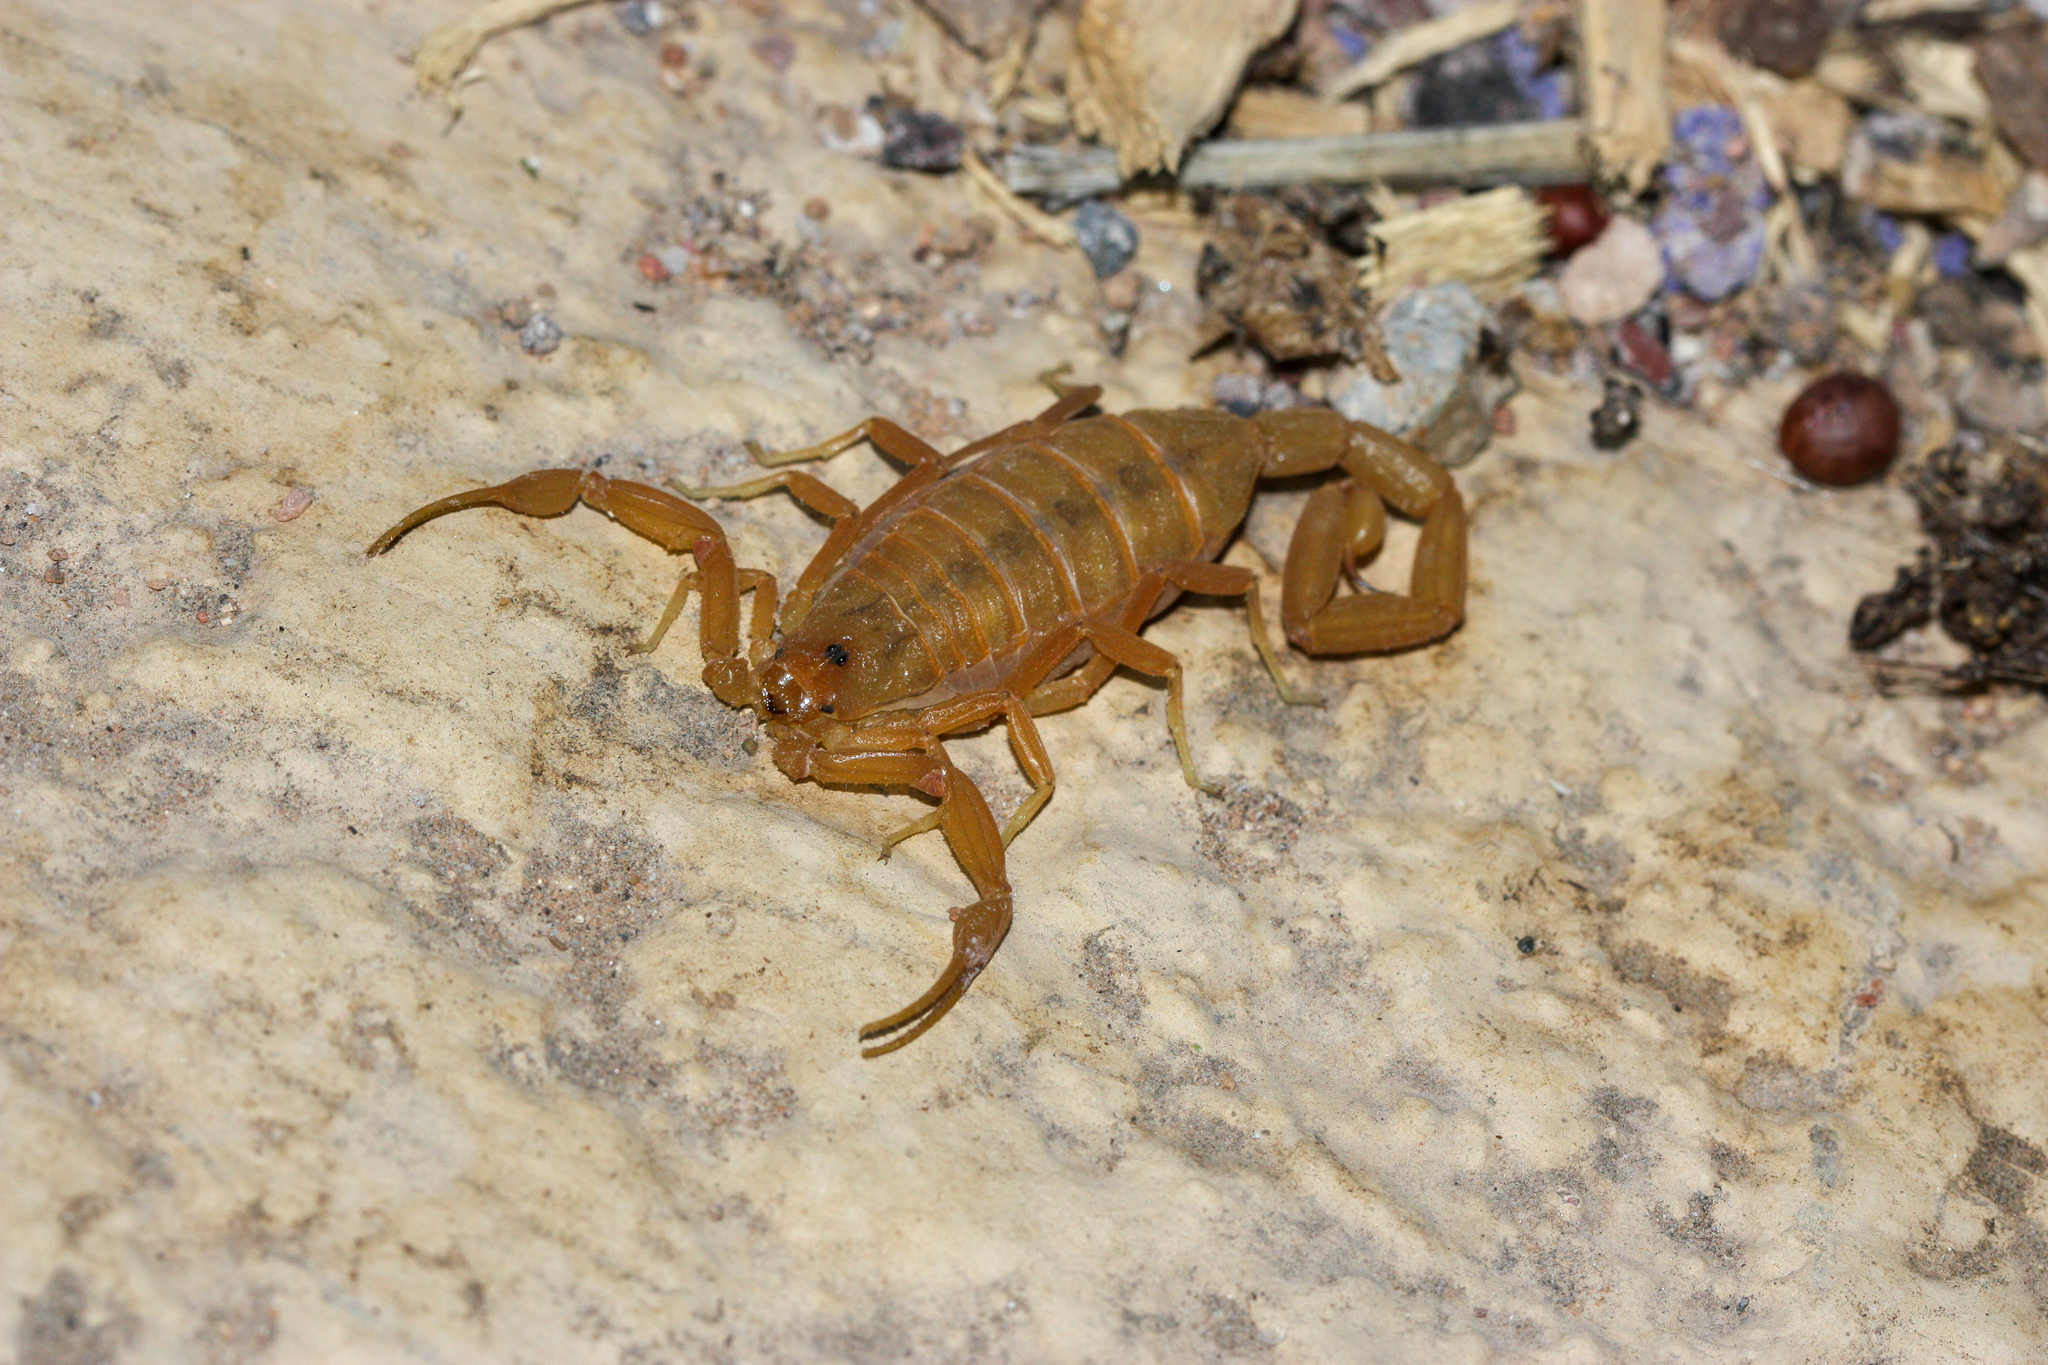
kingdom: Animalia
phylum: Arthropoda
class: Arachnida
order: Scorpiones
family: Buthidae
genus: Centruroides
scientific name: Centruroides sculpturatus
